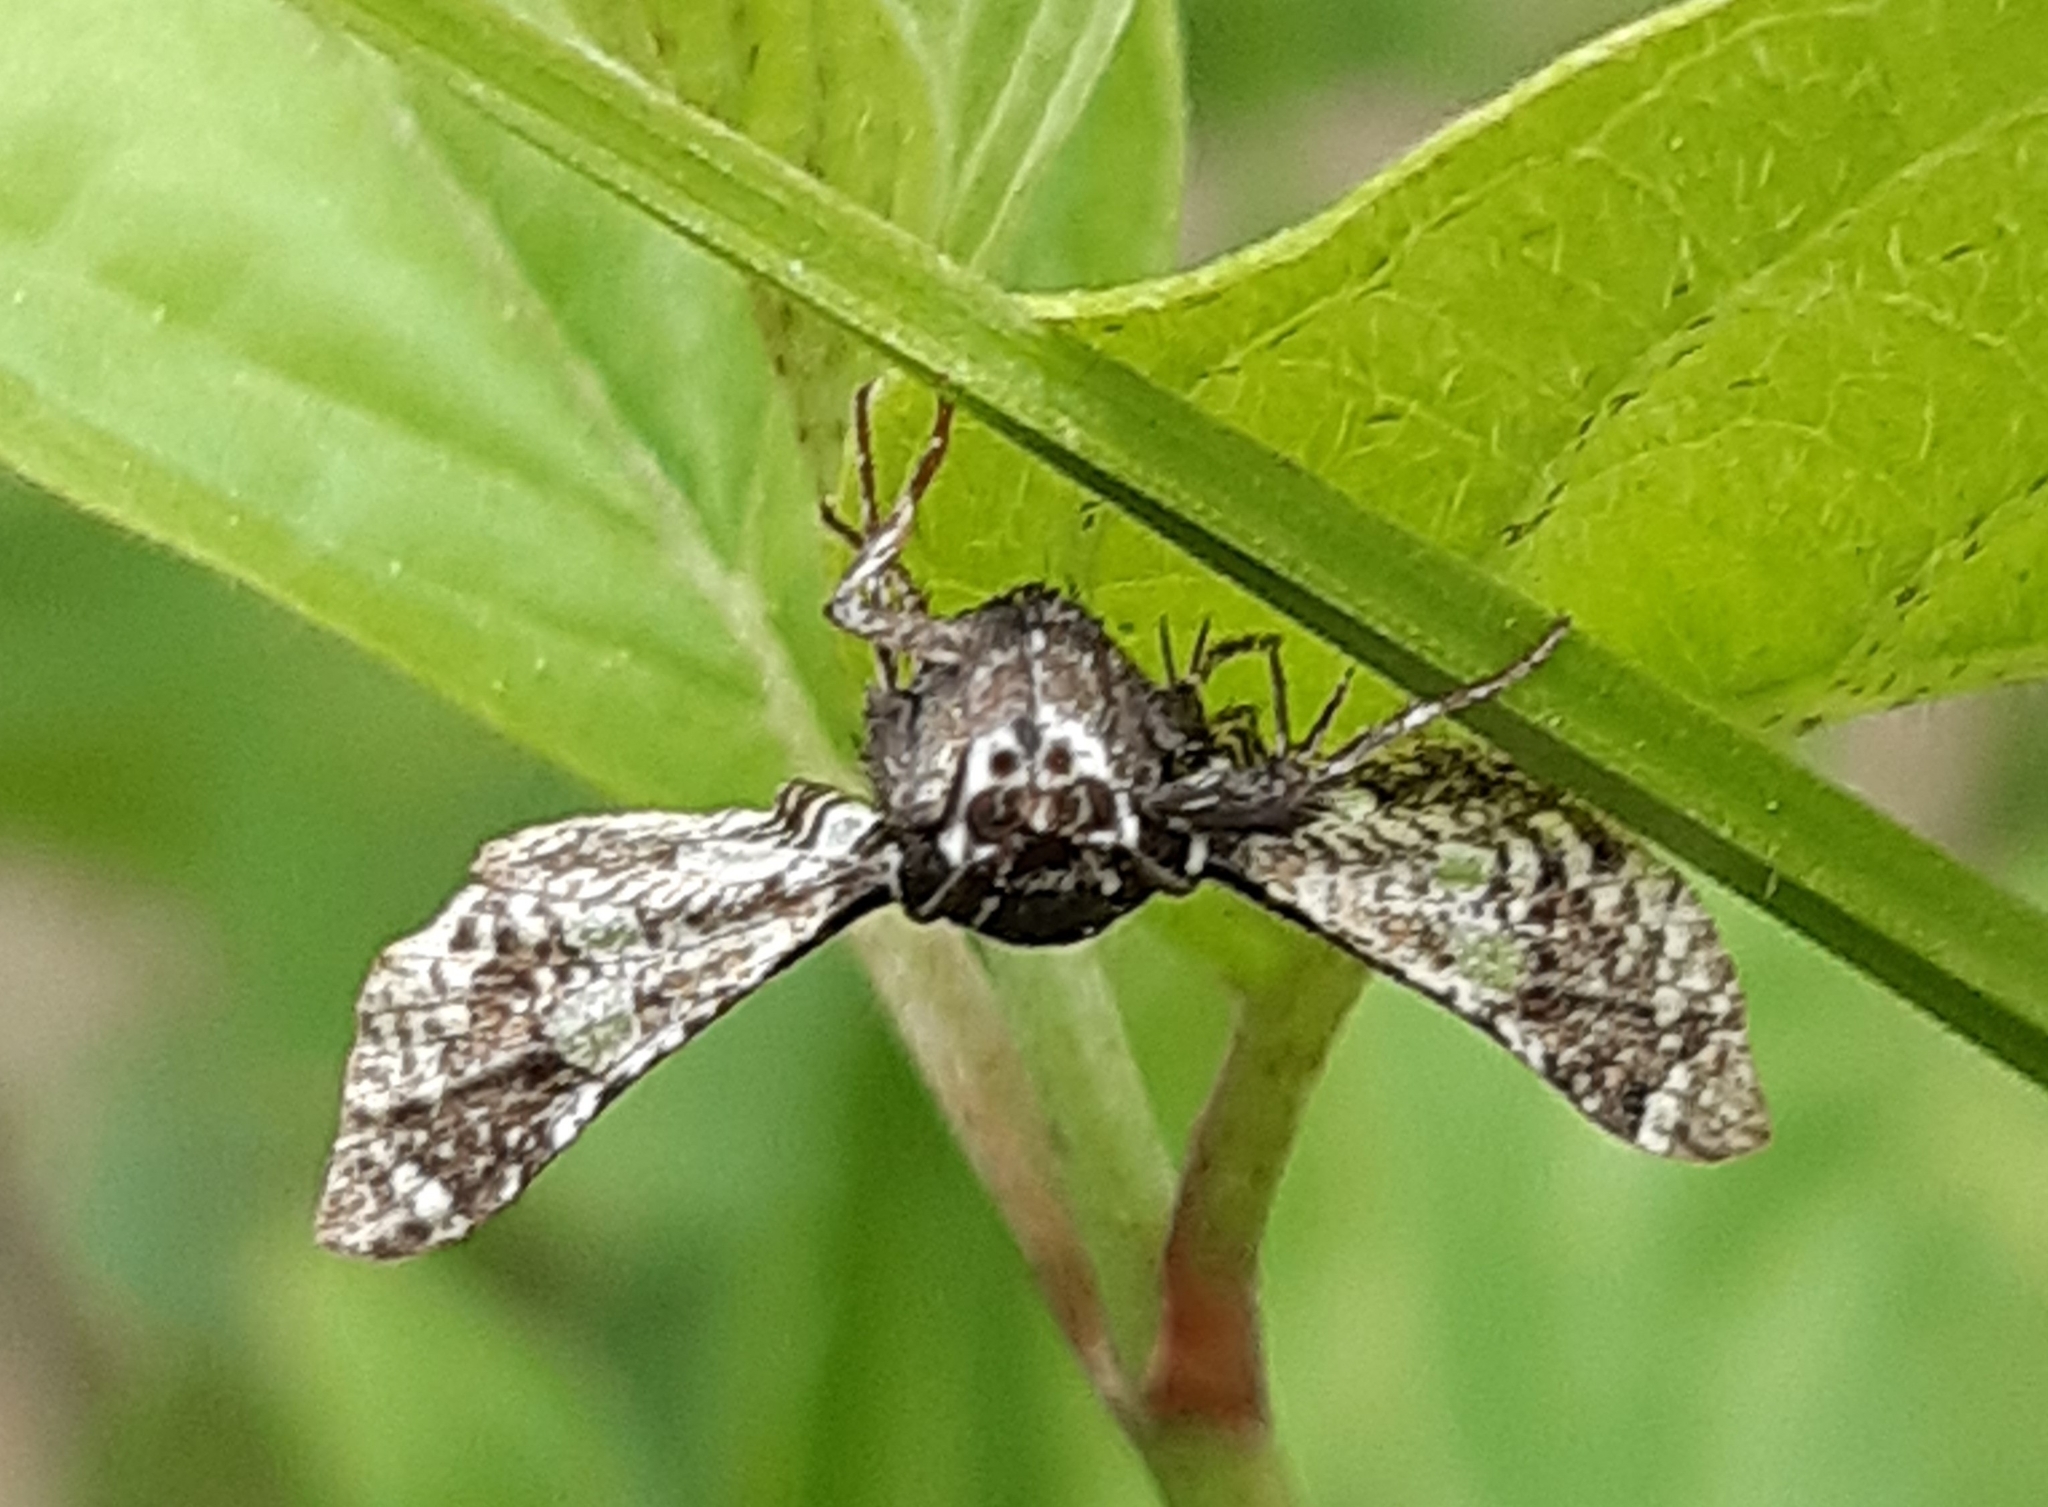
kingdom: Animalia
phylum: Arthropoda
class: Insecta
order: Lepidoptera
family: Thyrididae
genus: Thyris
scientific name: Thyris fenestrella
